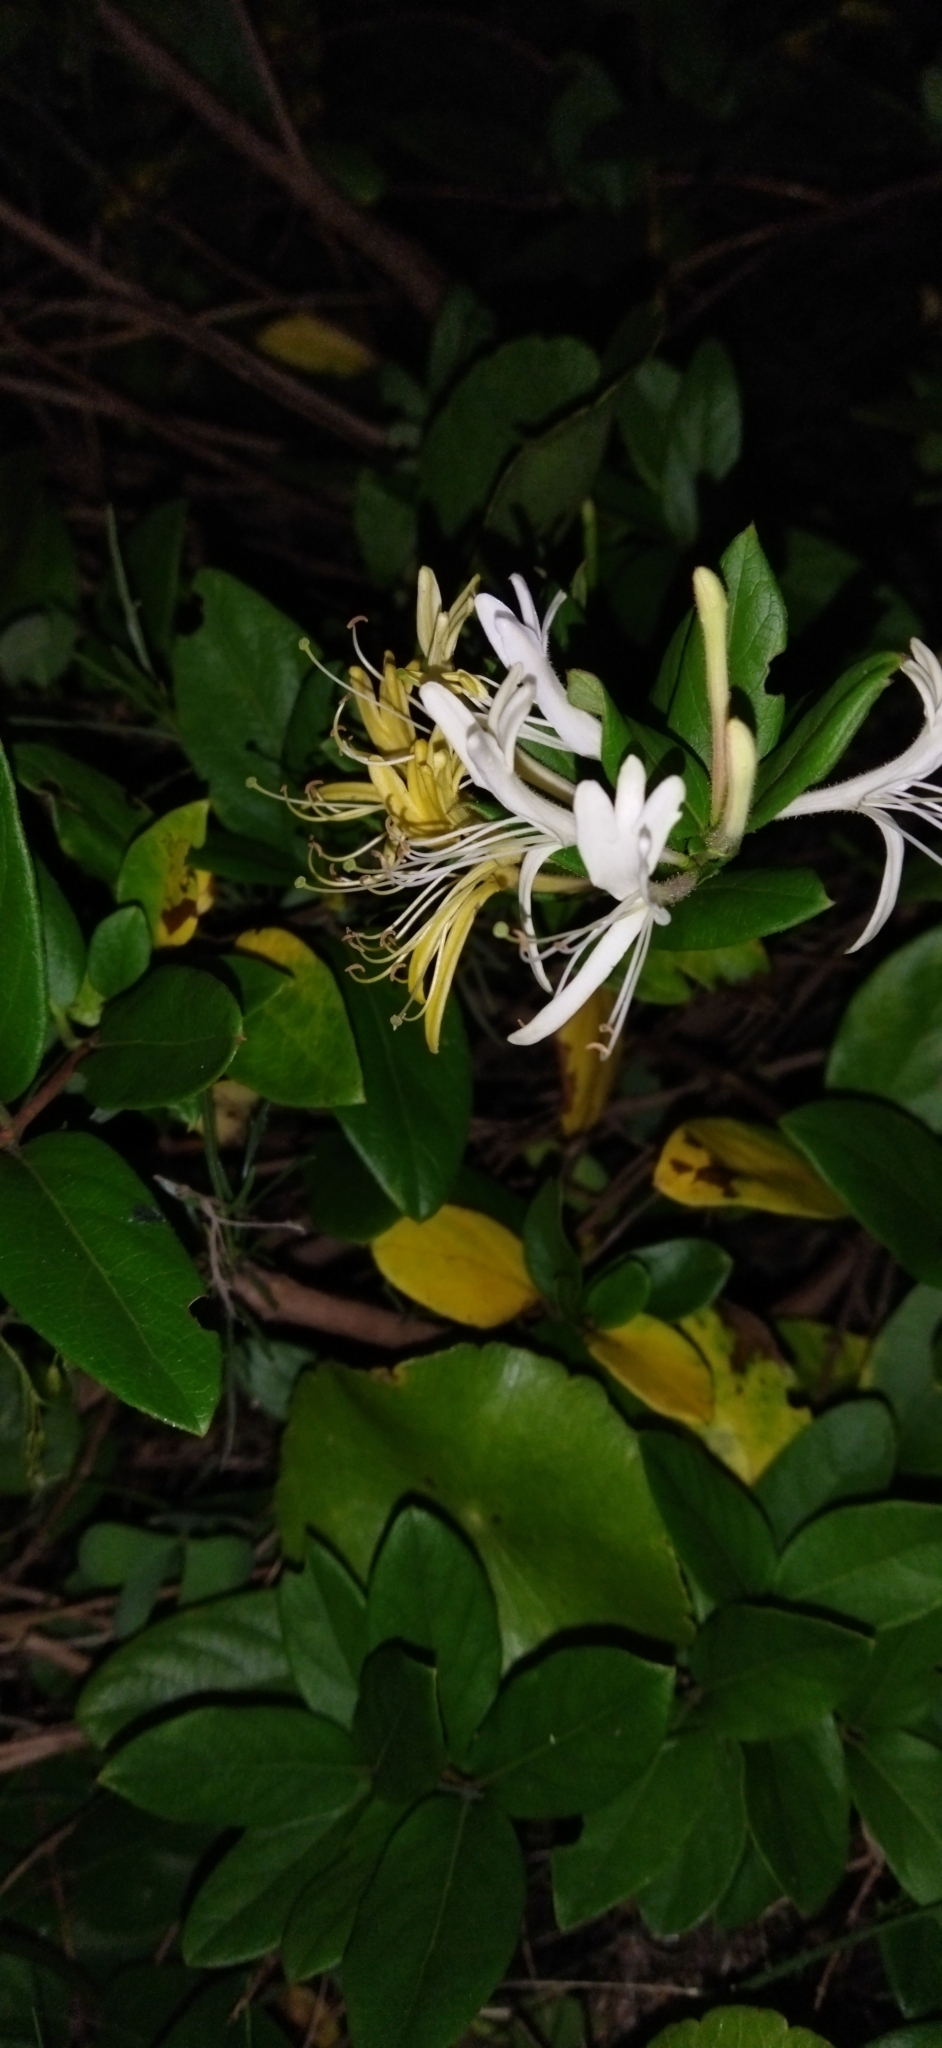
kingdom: Plantae
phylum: Tracheophyta
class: Magnoliopsida
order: Dipsacales
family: Caprifoliaceae
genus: Lonicera
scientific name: Lonicera japonica
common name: Japanese honeysuckle
